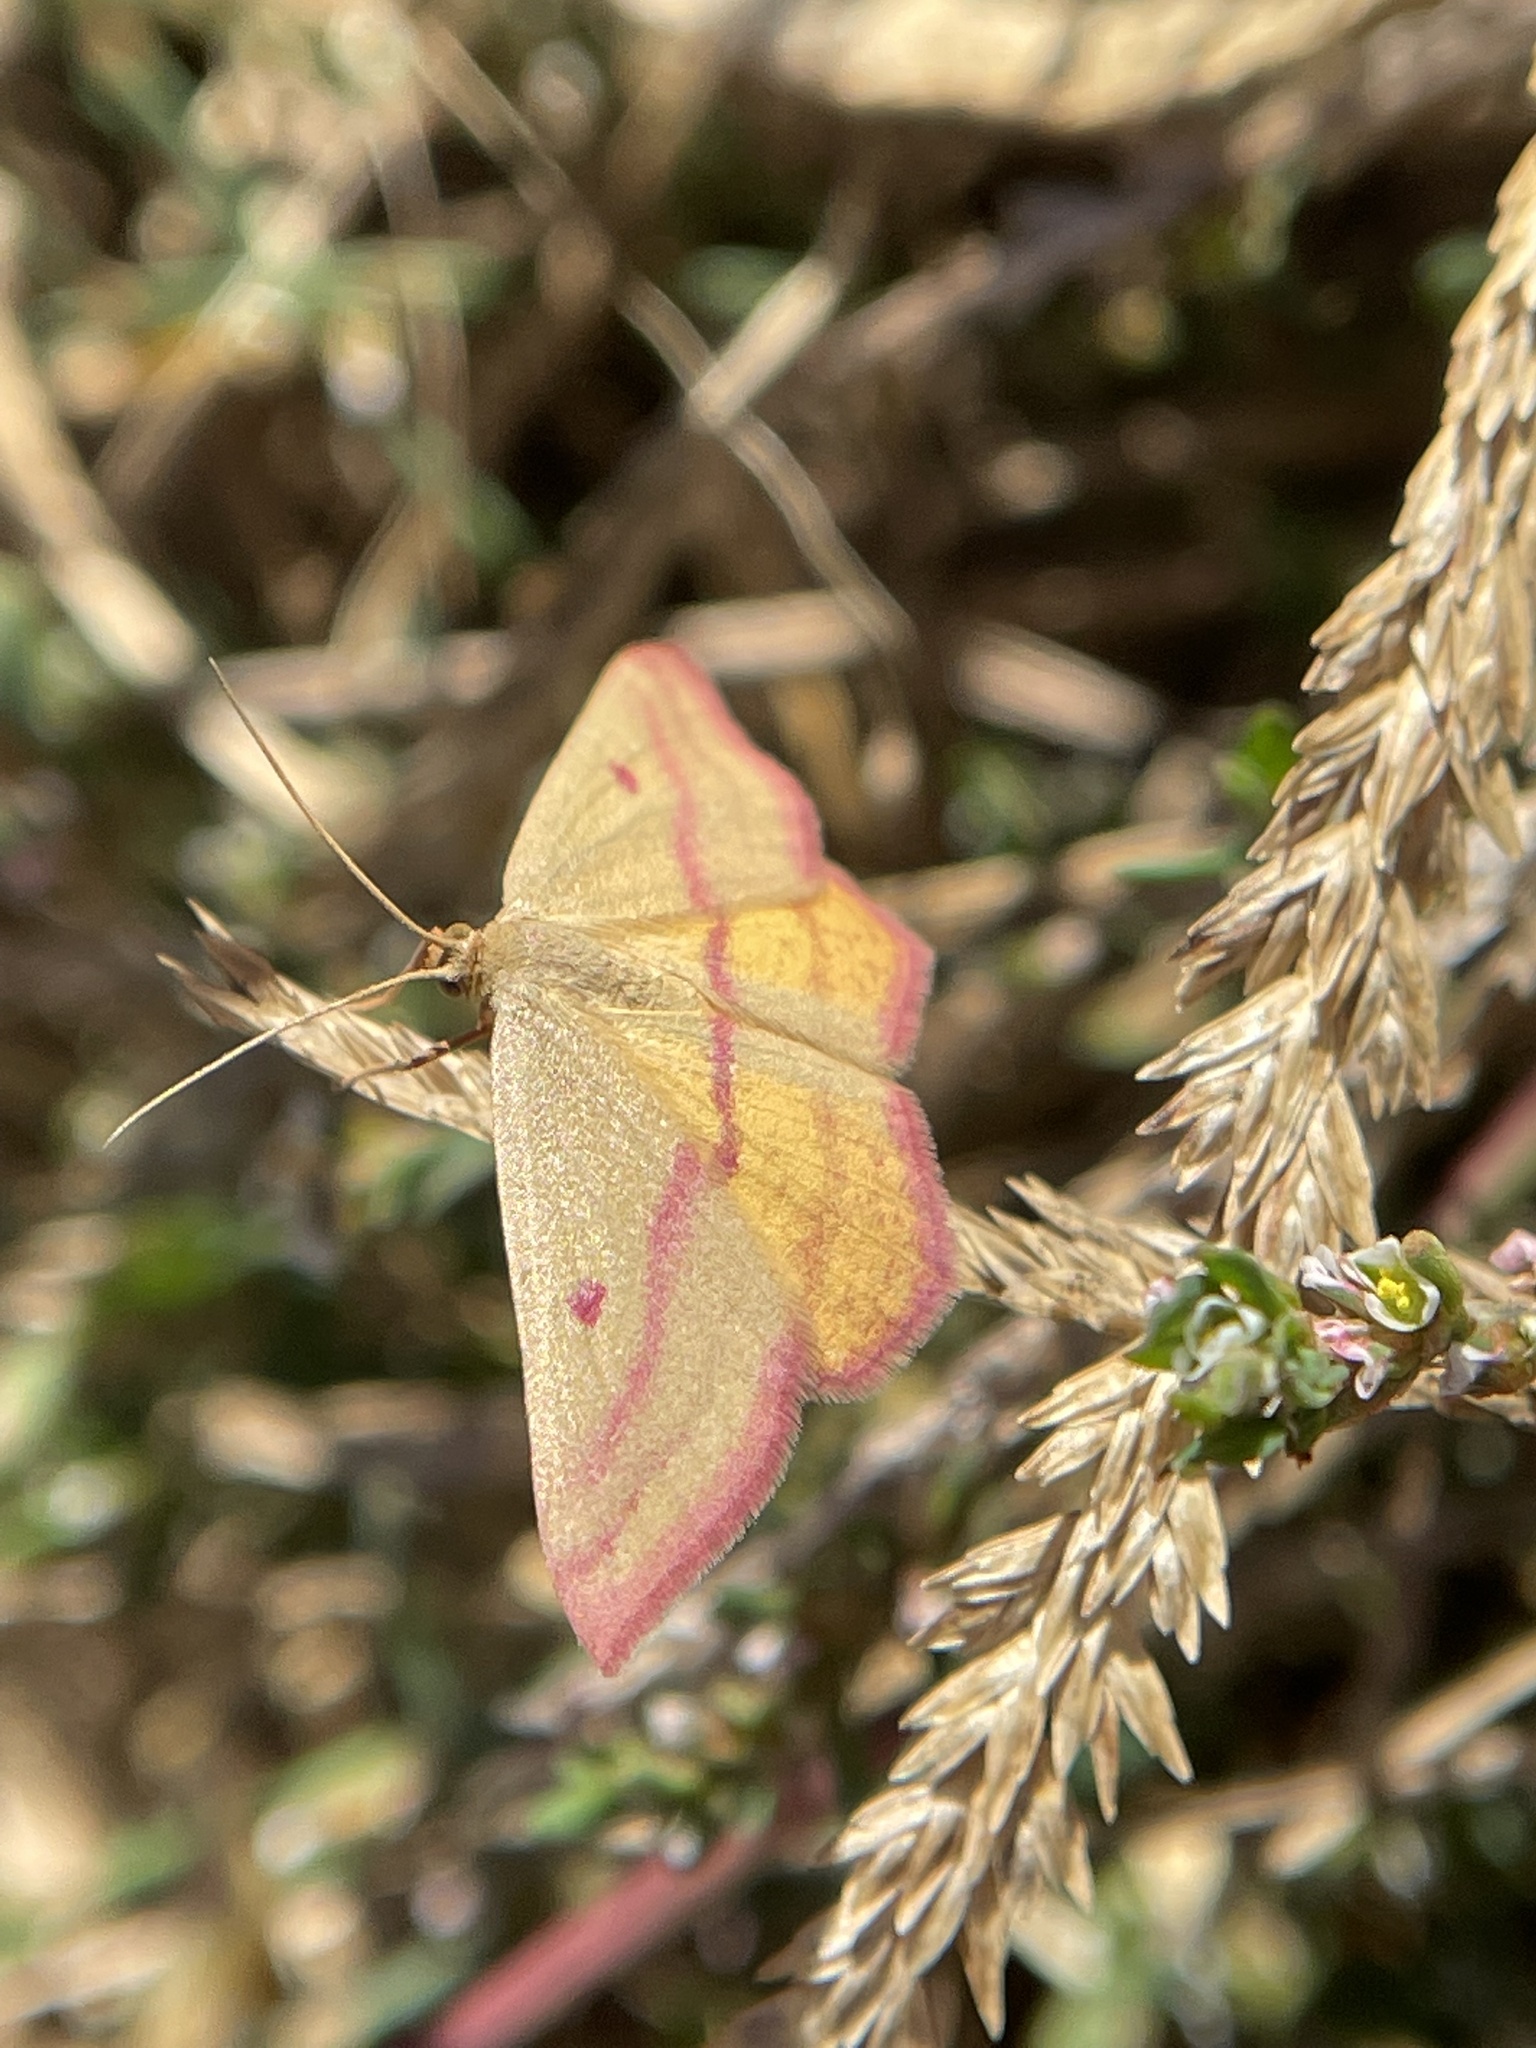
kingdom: Animalia
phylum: Arthropoda
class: Insecta
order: Lepidoptera
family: Geometridae
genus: Haematopis
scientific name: Haematopis grataria
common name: Chickweed geometer
